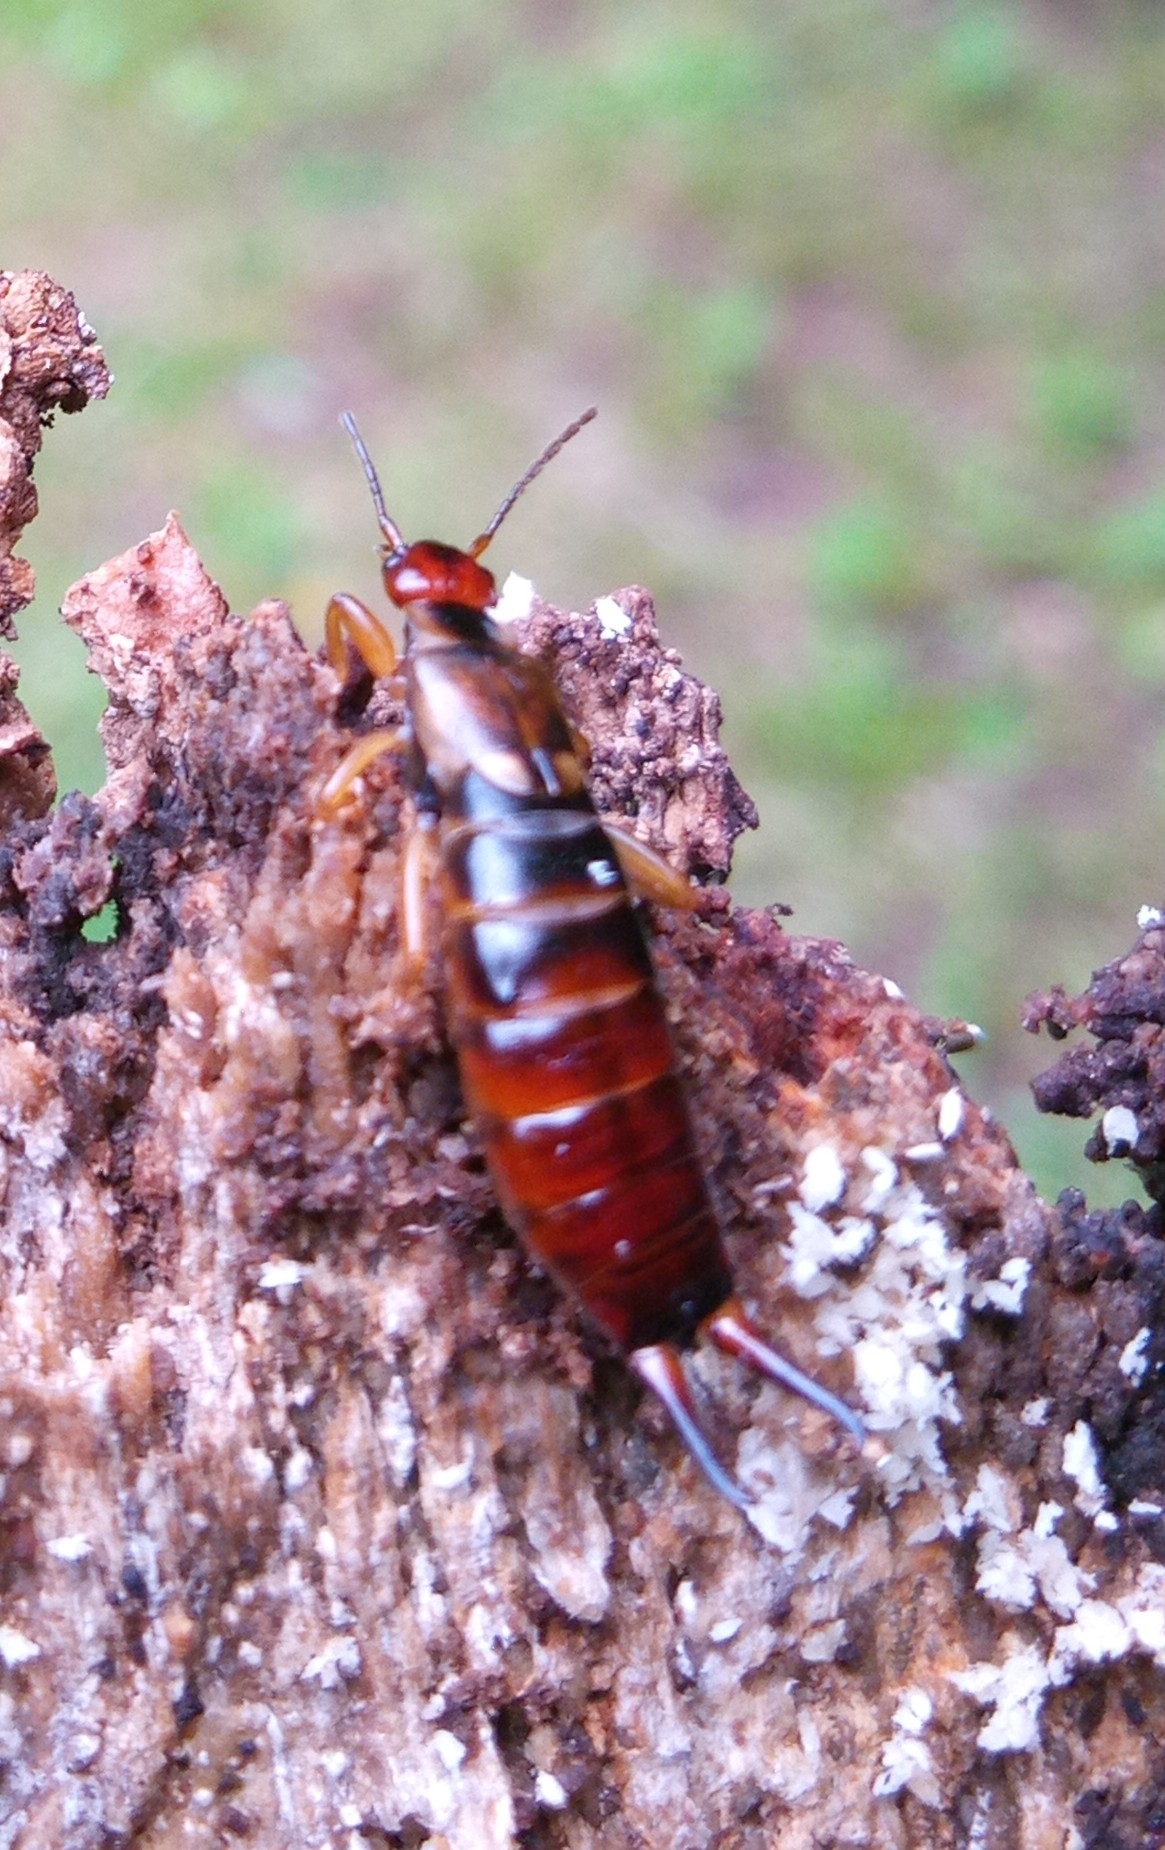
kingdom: Animalia
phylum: Arthropoda
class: Insecta
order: Dermaptera
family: Forficulidae
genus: Forficula
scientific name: Forficula
